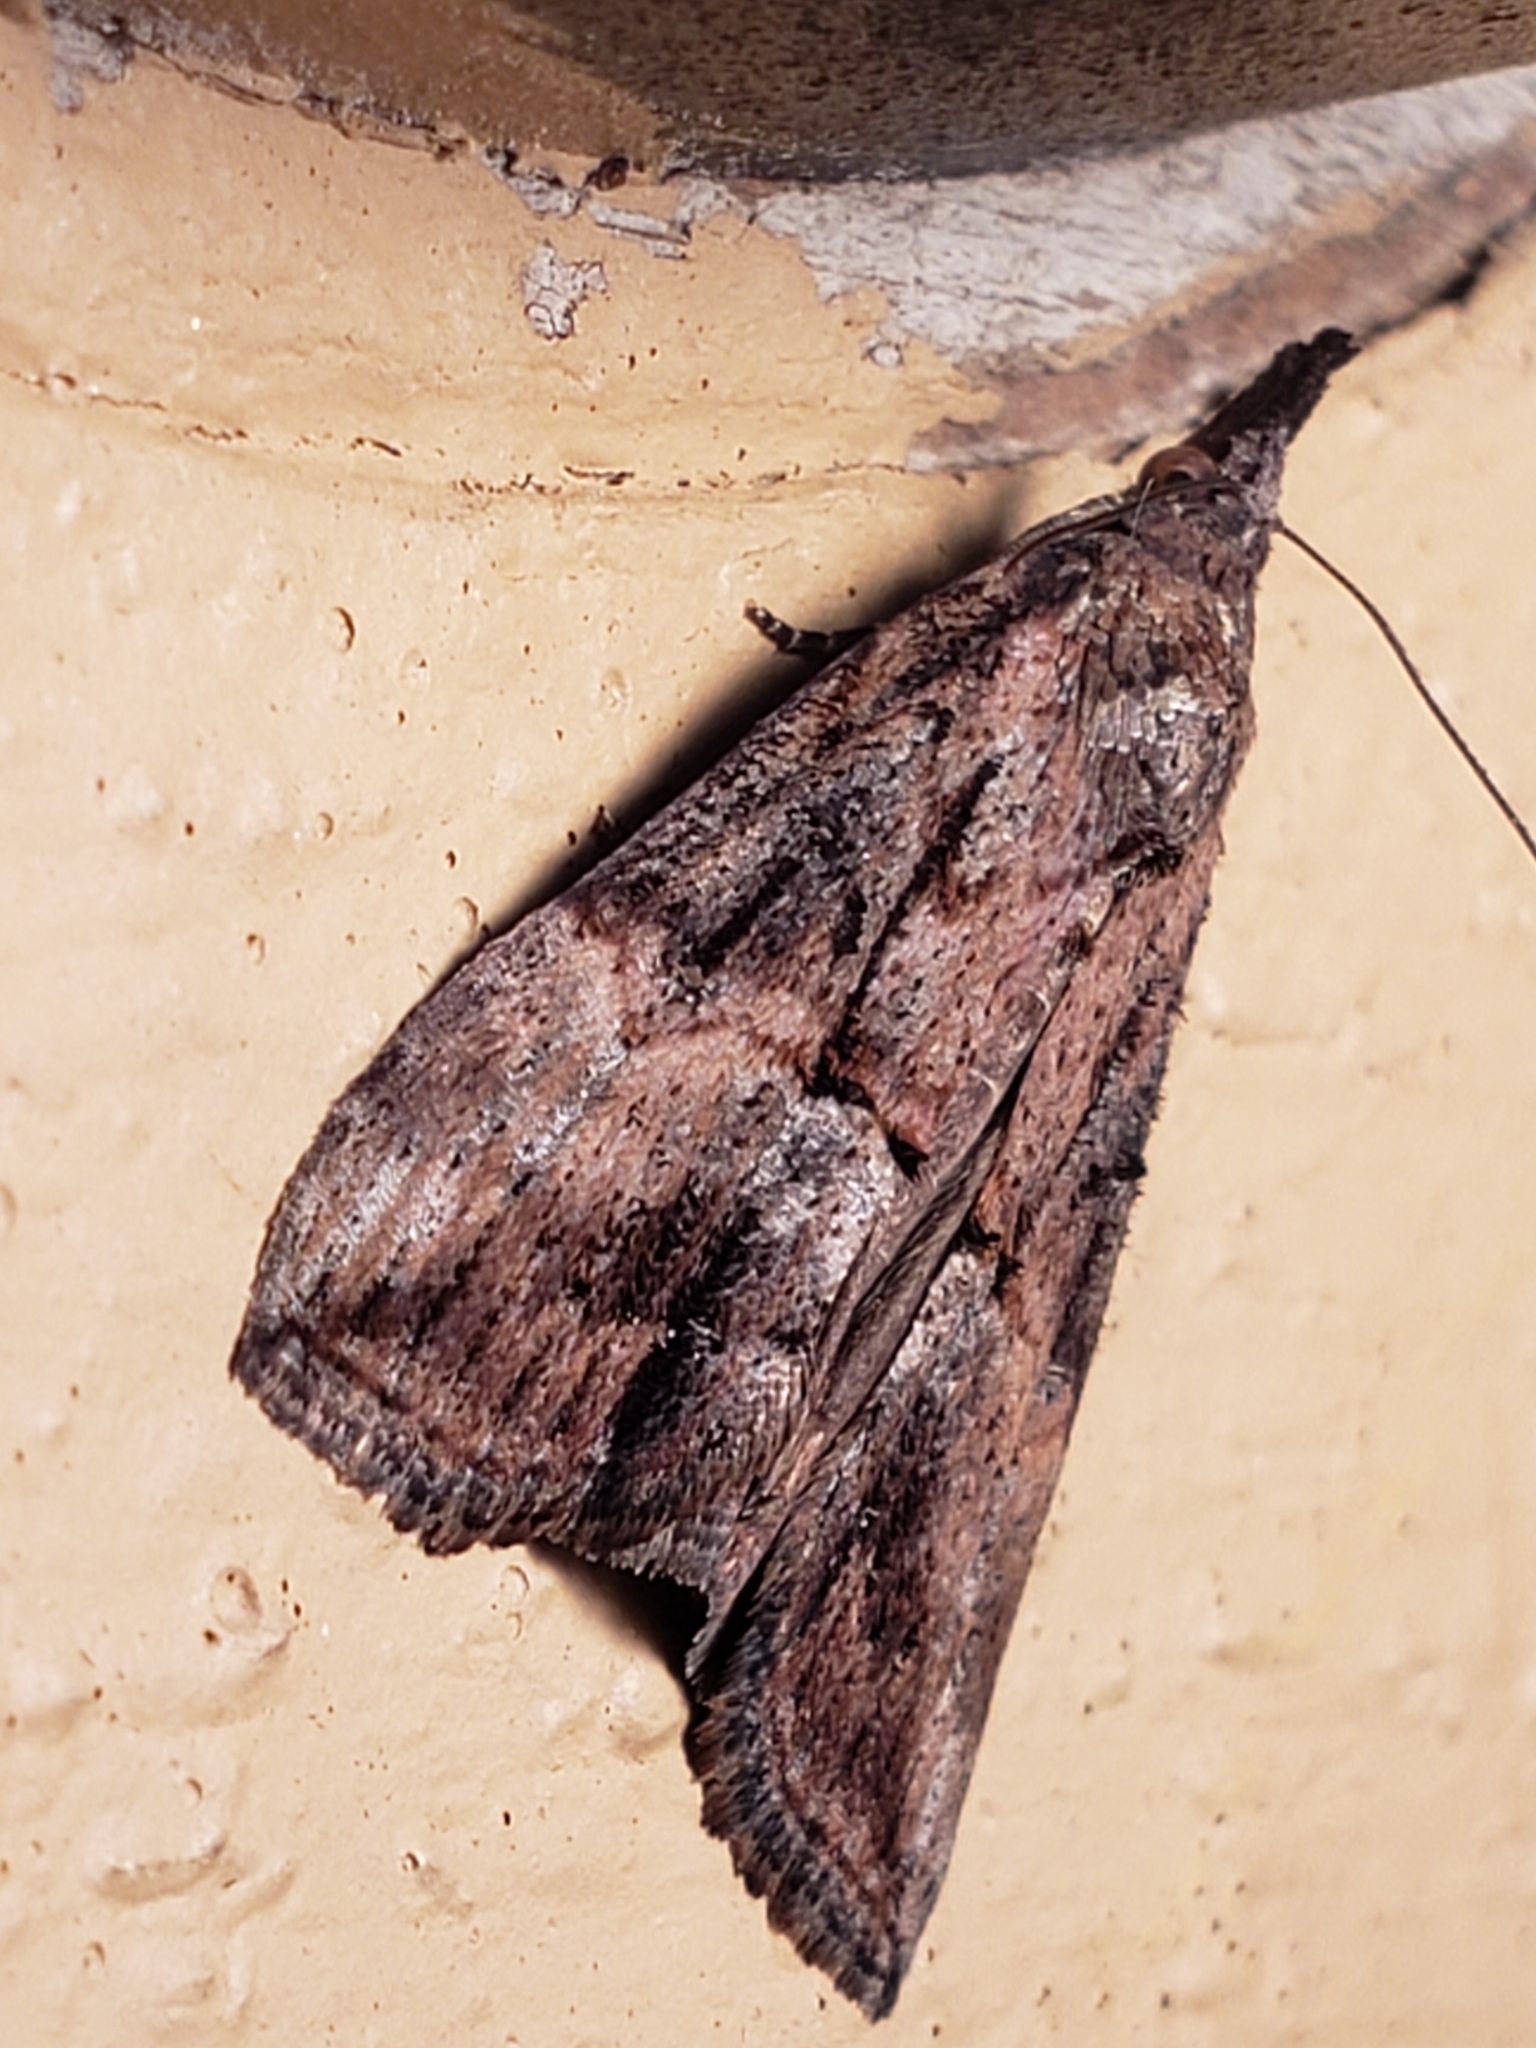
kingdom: Animalia
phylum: Arthropoda
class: Insecta
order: Lepidoptera
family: Erebidae
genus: Hypena
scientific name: Hypena scabra
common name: Green cloverworm
